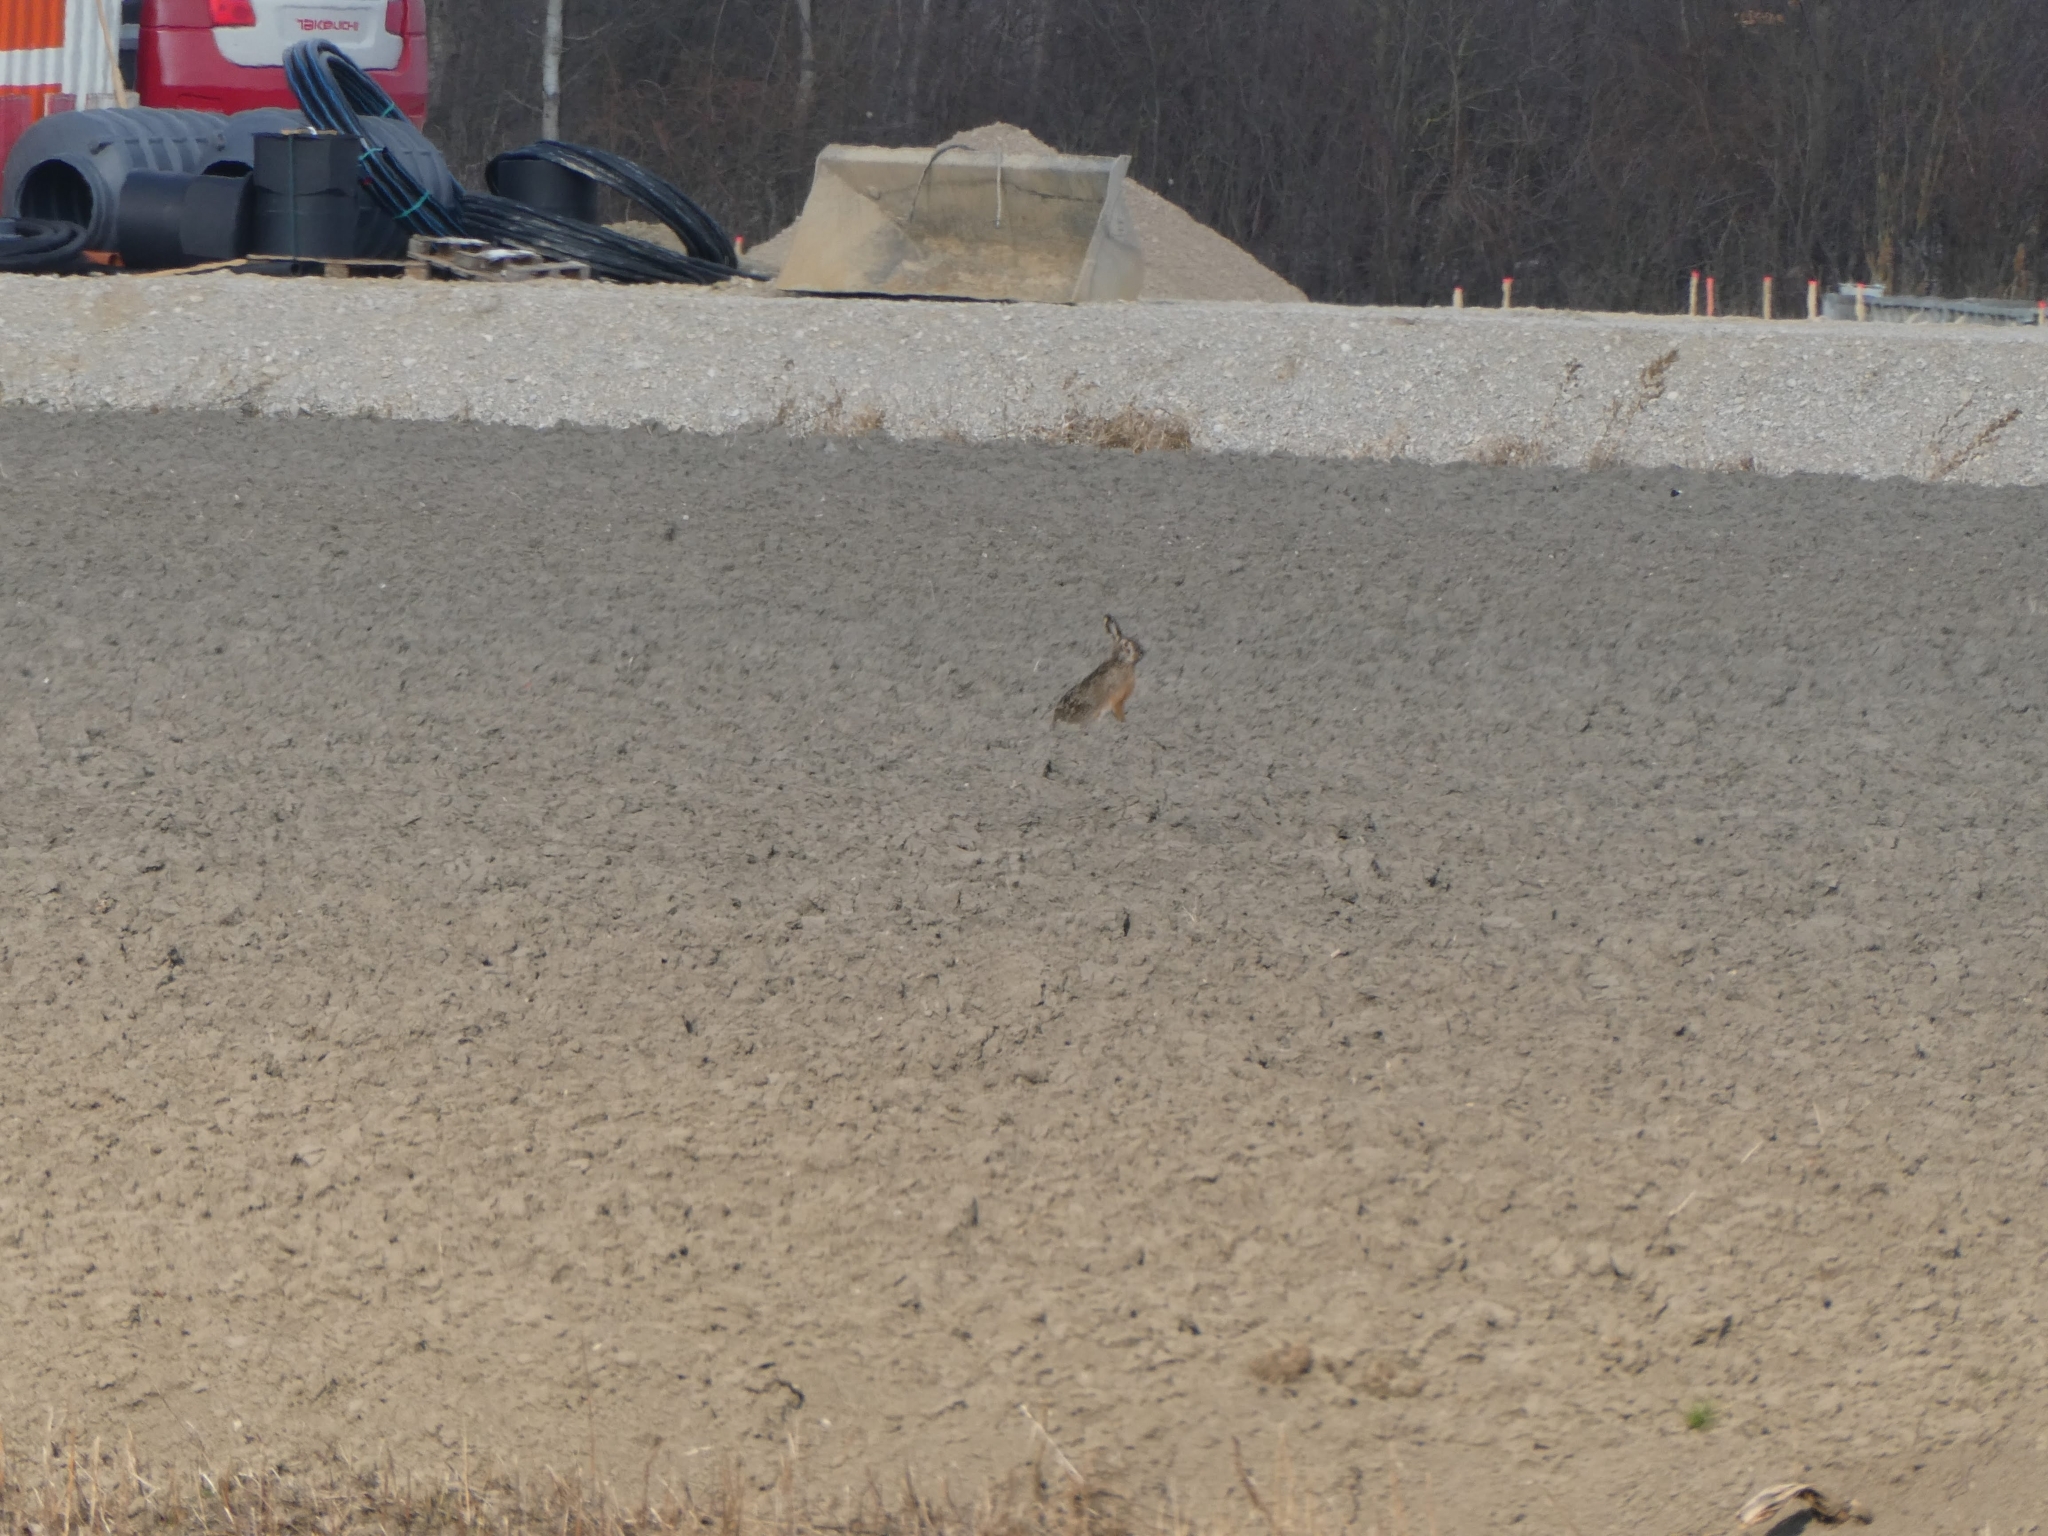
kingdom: Animalia
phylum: Chordata
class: Mammalia
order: Lagomorpha
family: Leporidae
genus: Lepus
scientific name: Lepus europaeus
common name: European hare
